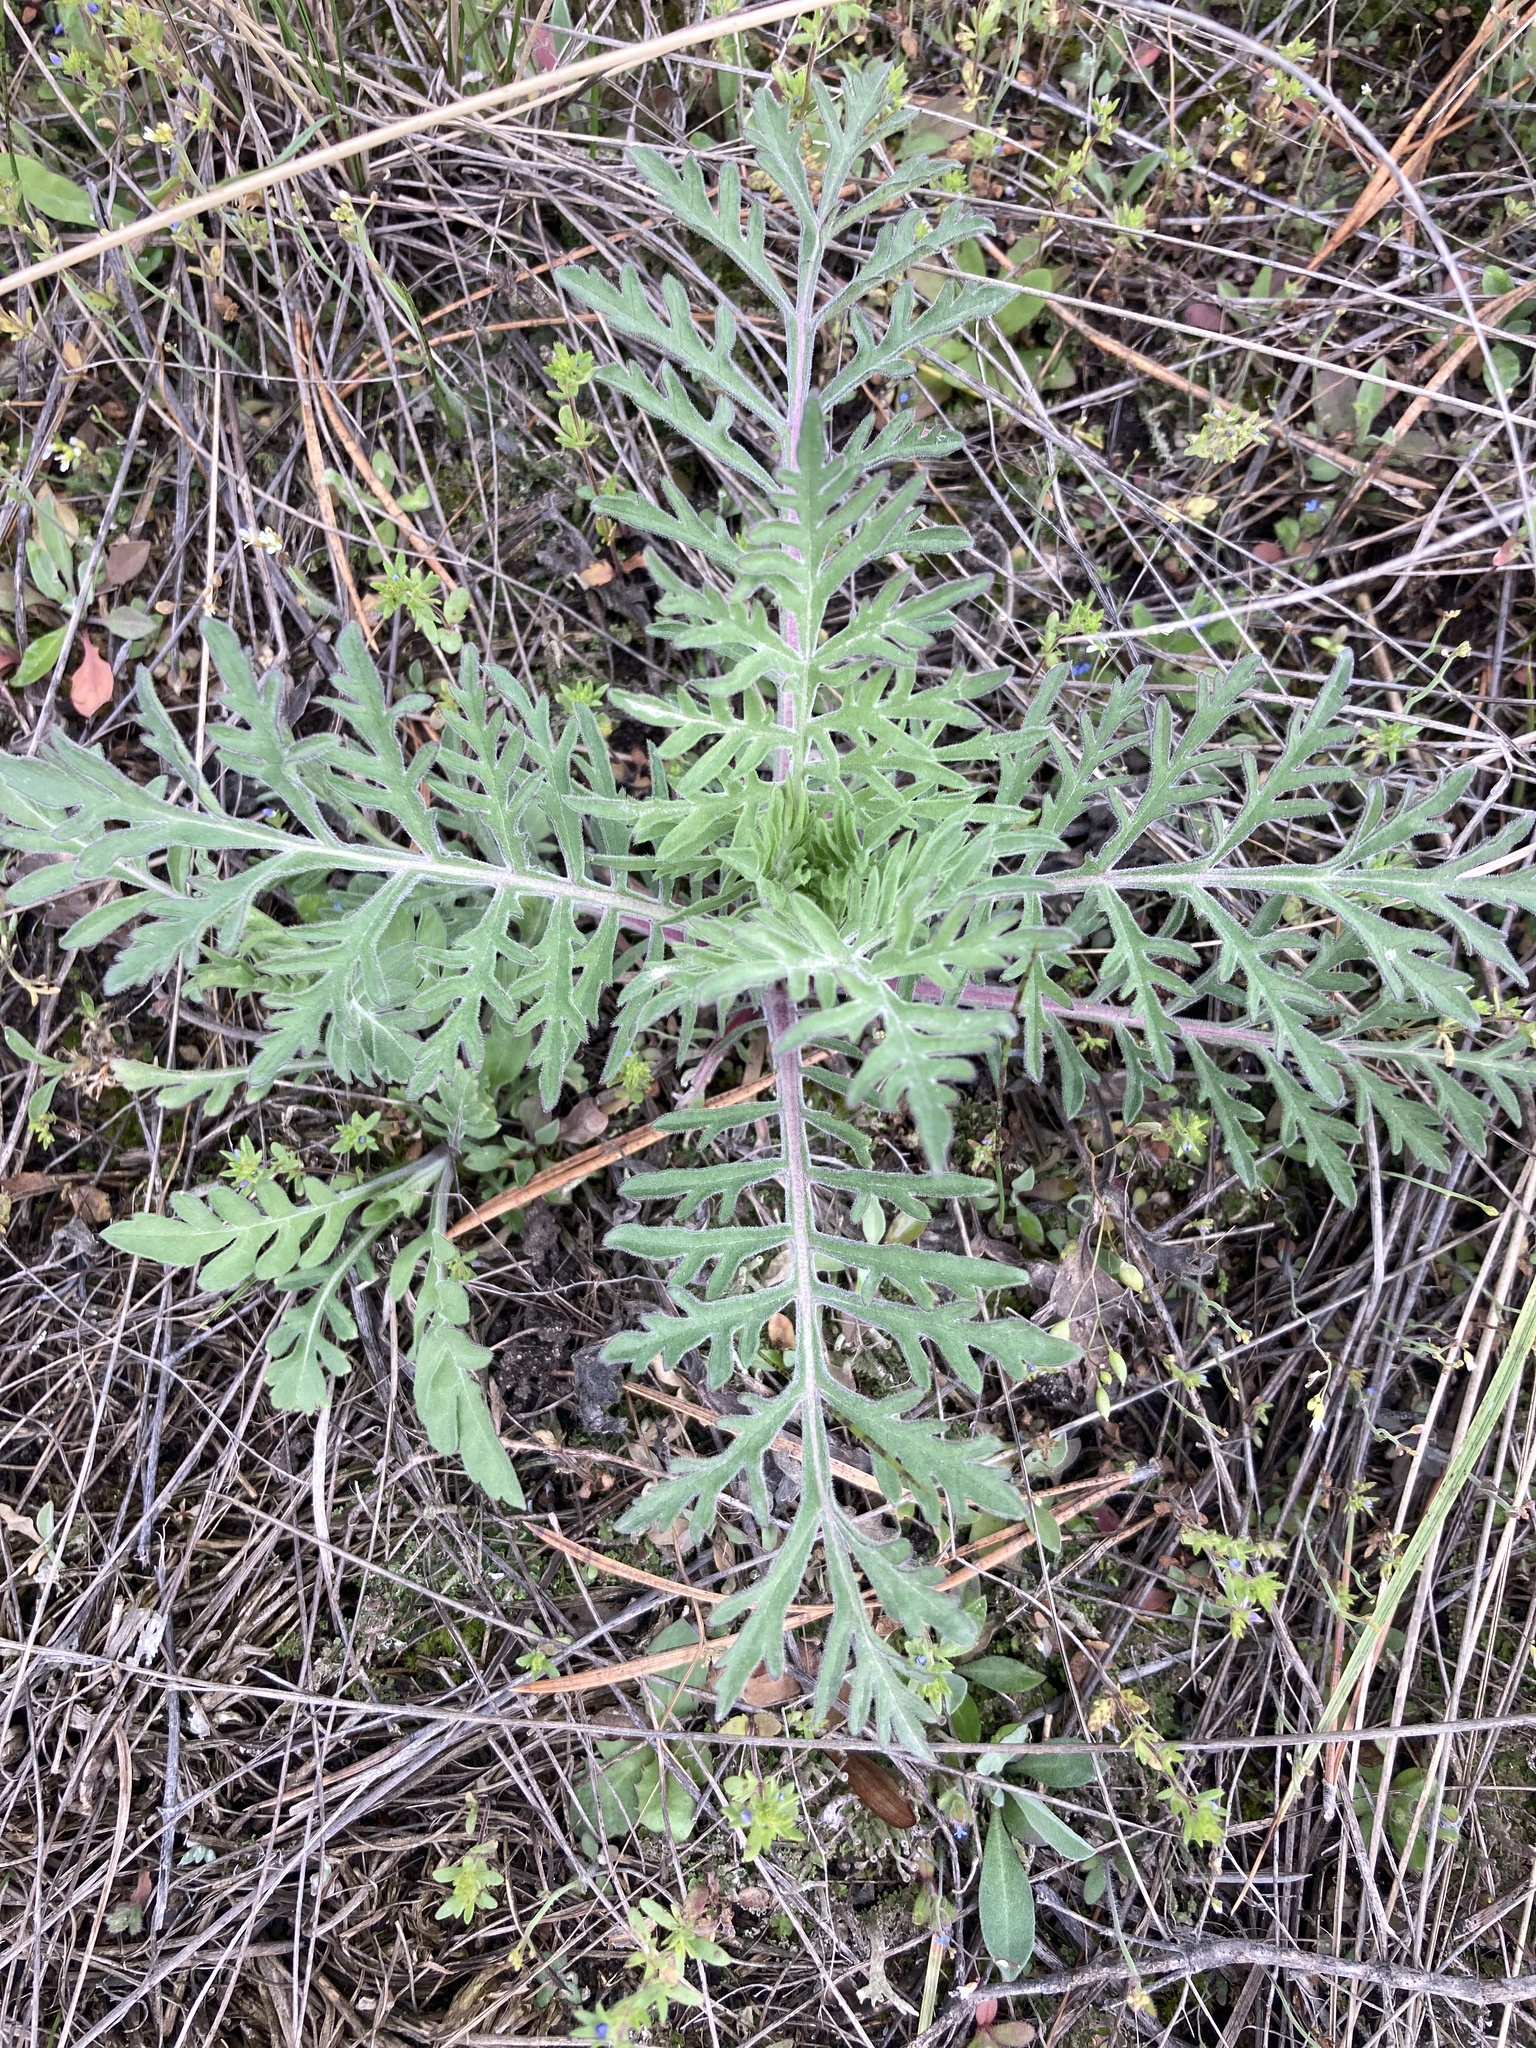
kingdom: Plantae
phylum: Tracheophyta
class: Magnoliopsida
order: Dipsacales
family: Caprifoliaceae
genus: Scabiosa
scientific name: Scabiosa ochroleuca
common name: Cream pincushions
